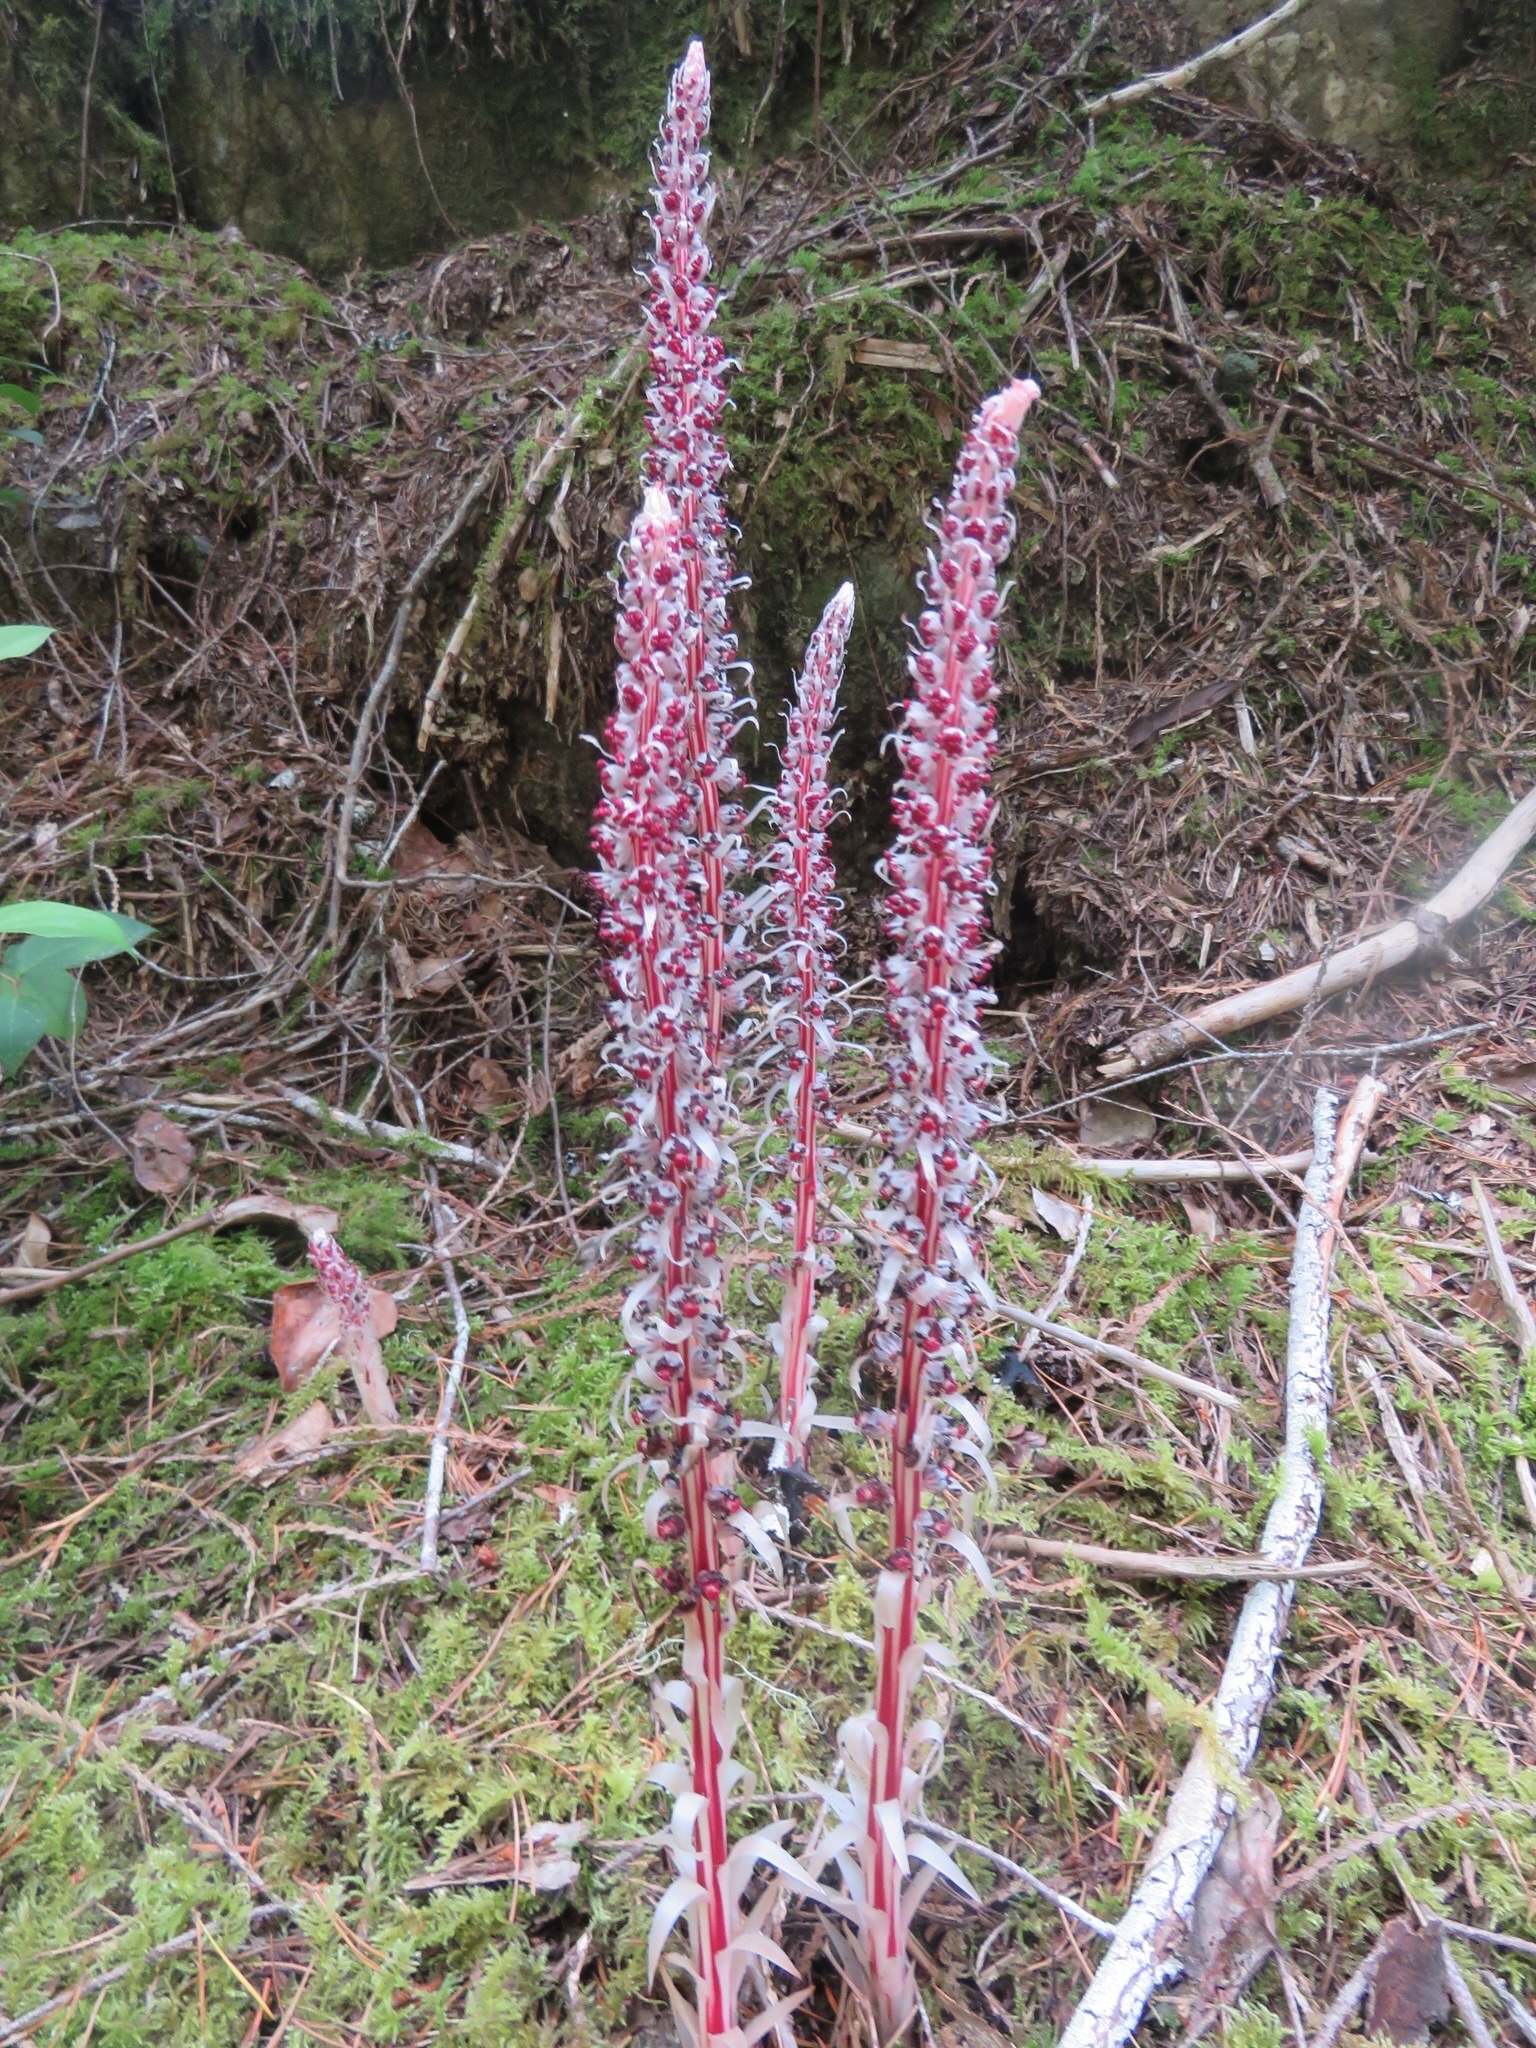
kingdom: Plantae
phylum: Tracheophyta
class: Magnoliopsida
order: Ericales
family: Ericaceae
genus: Allotropa
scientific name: Allotropa virgata
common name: Candy-striped allotropa
